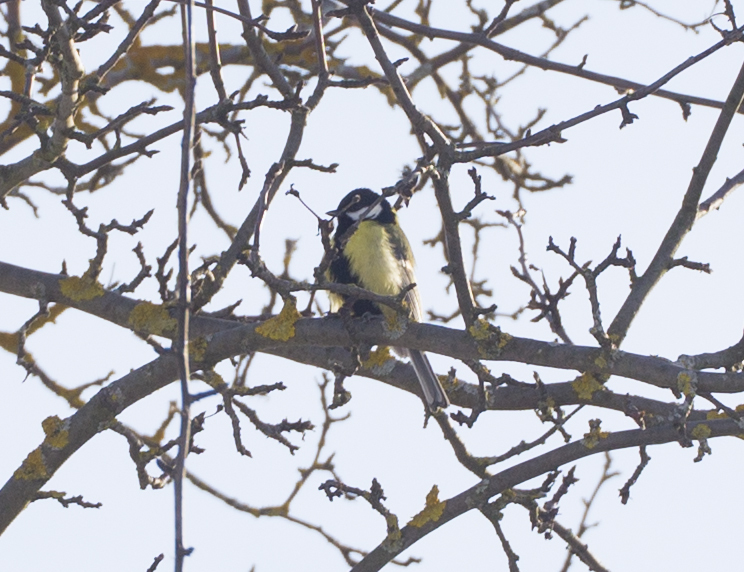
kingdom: Animalia
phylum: Chordata
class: Aves
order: Passeriformes
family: Paridae
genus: Parus
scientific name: Parus major
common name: Great tit
